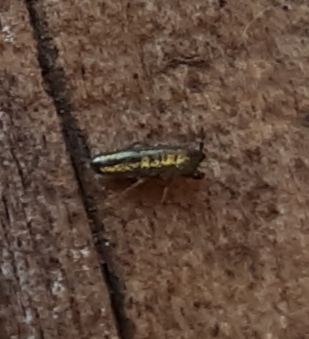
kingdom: Animalia
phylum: Arthropoda
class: Collembola
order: Entomobryomorpha
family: Entomobryidae
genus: Lepidocyrtus
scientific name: Lepidocyrtus paradoxus
